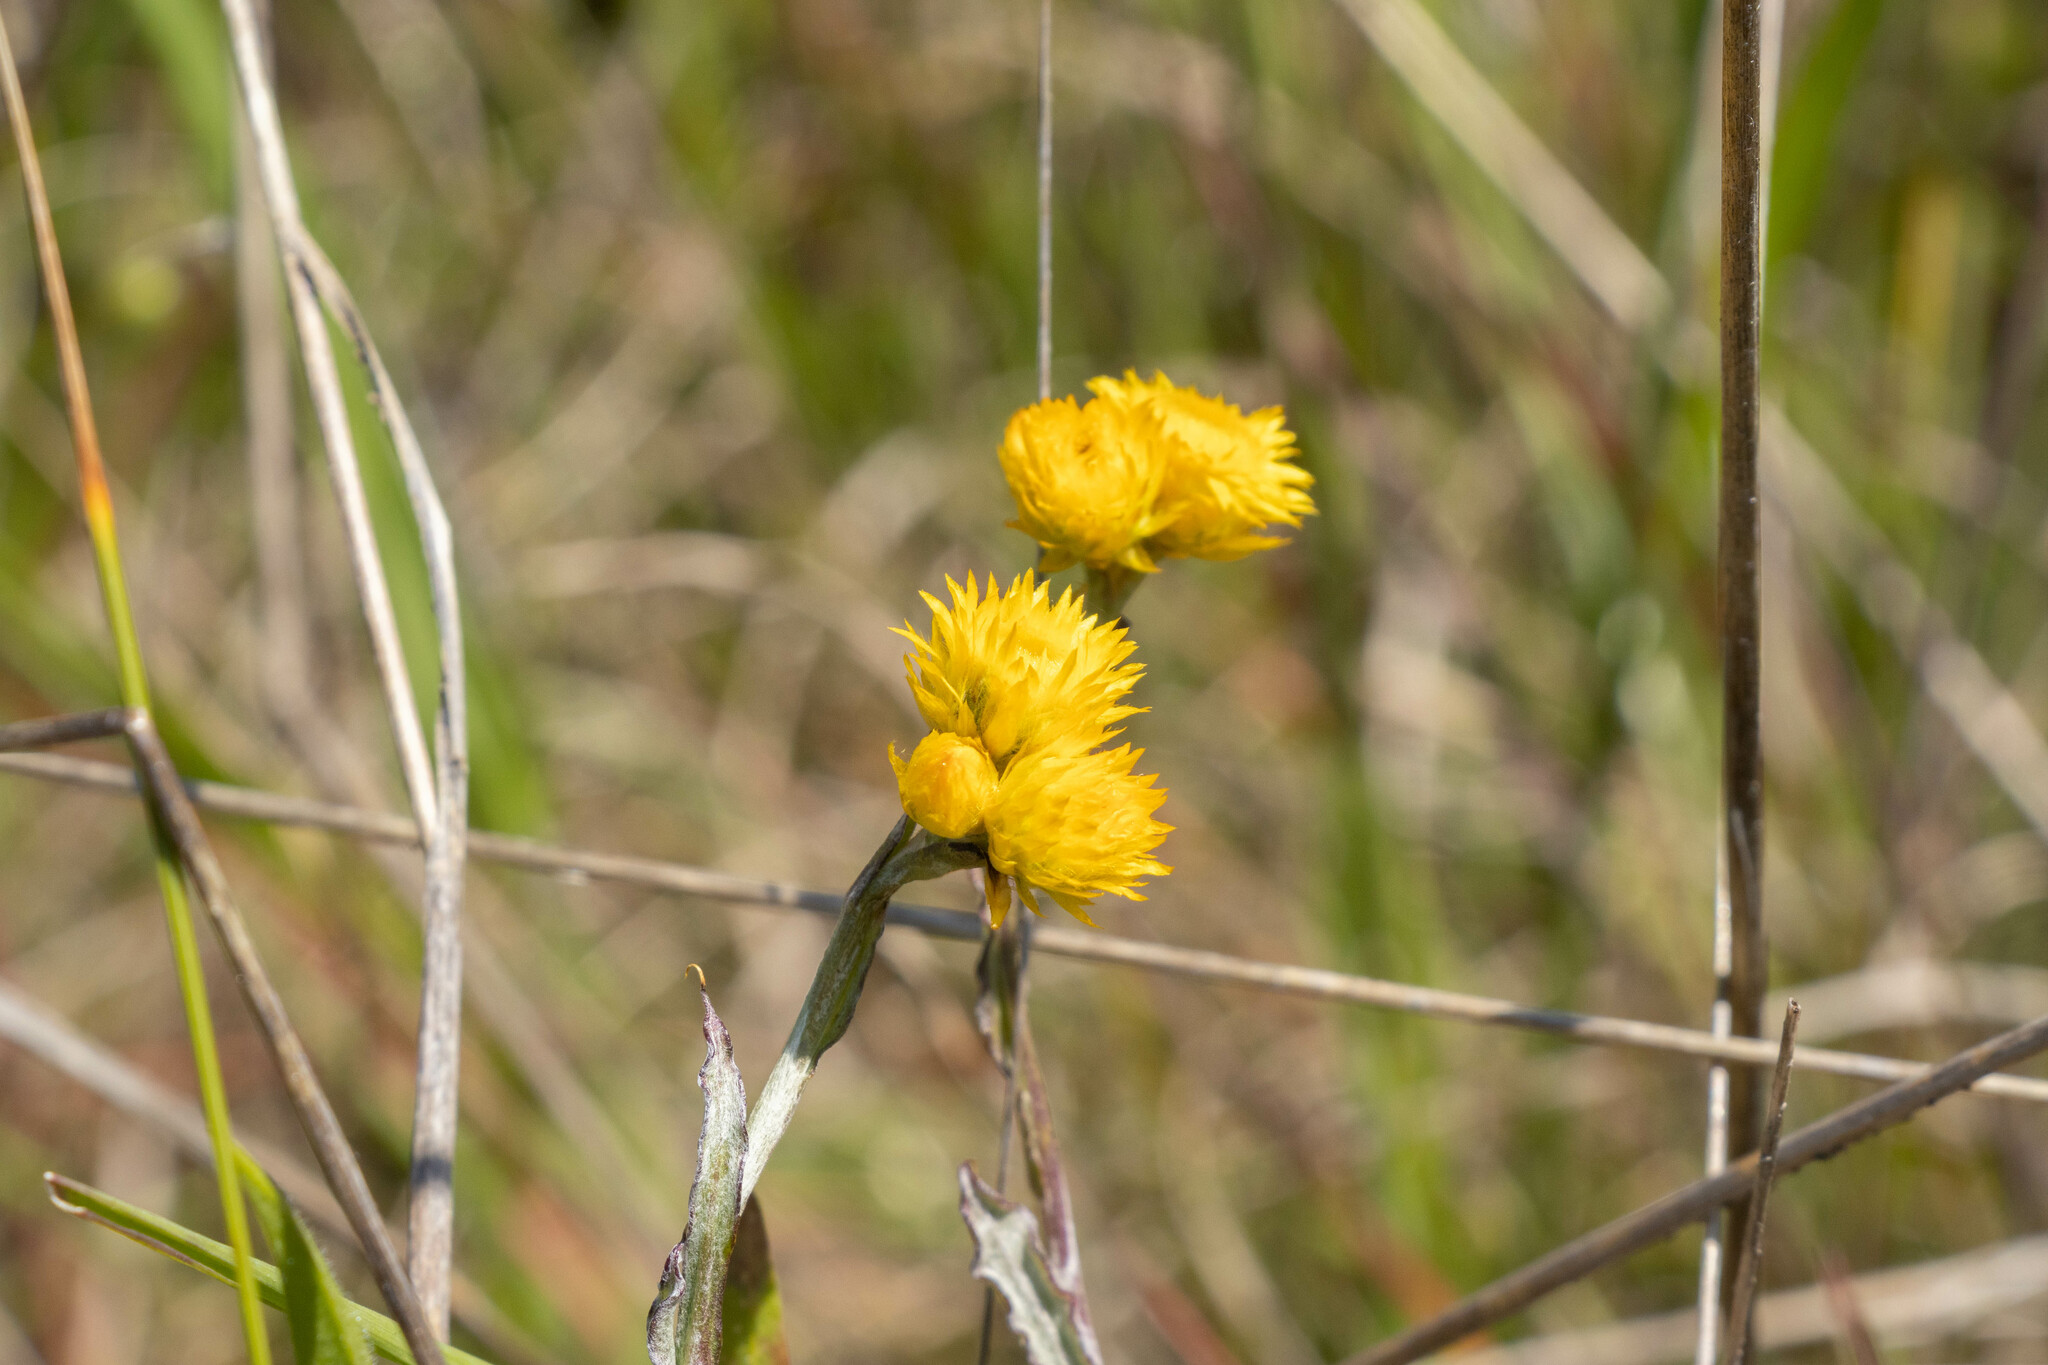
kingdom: Plantae
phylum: Tracheophyta
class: Magnoliopsida
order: Asterales
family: Asteraceae
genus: Chrysocephalum
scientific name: Chrysocephalum apiculatum
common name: Common everlasting
